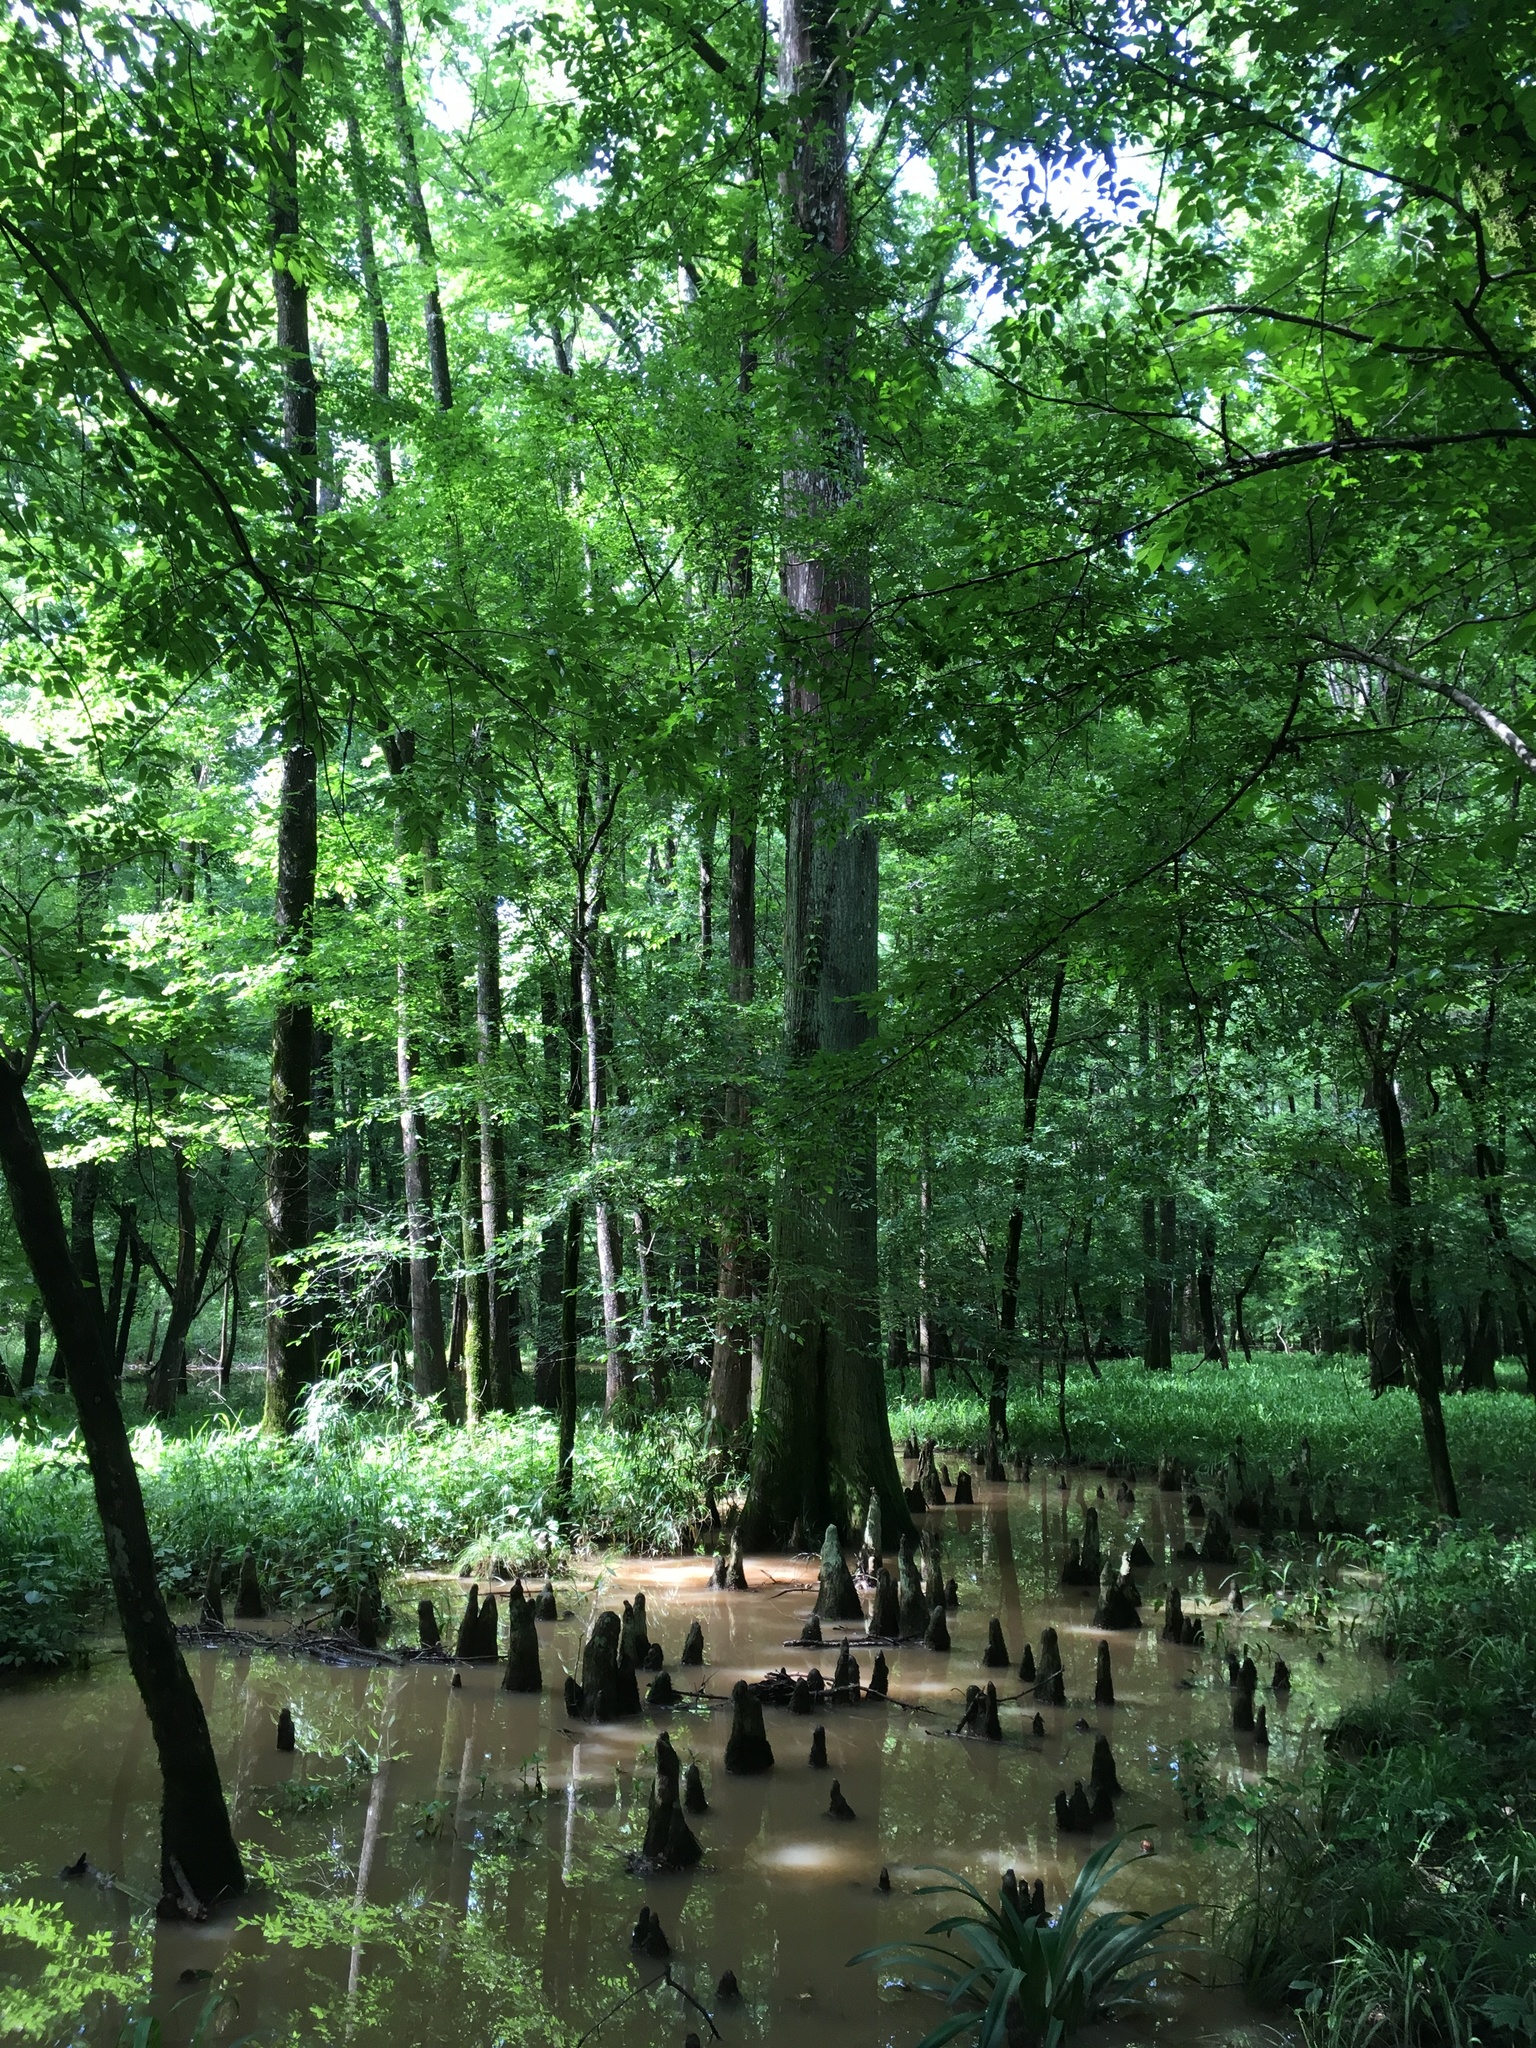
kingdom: Plantae
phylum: Tracheophyta
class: Pinopsida
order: Pinales
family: Cupressaceae
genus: Taxodium
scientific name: Taxodium distichum
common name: Bald cypress
